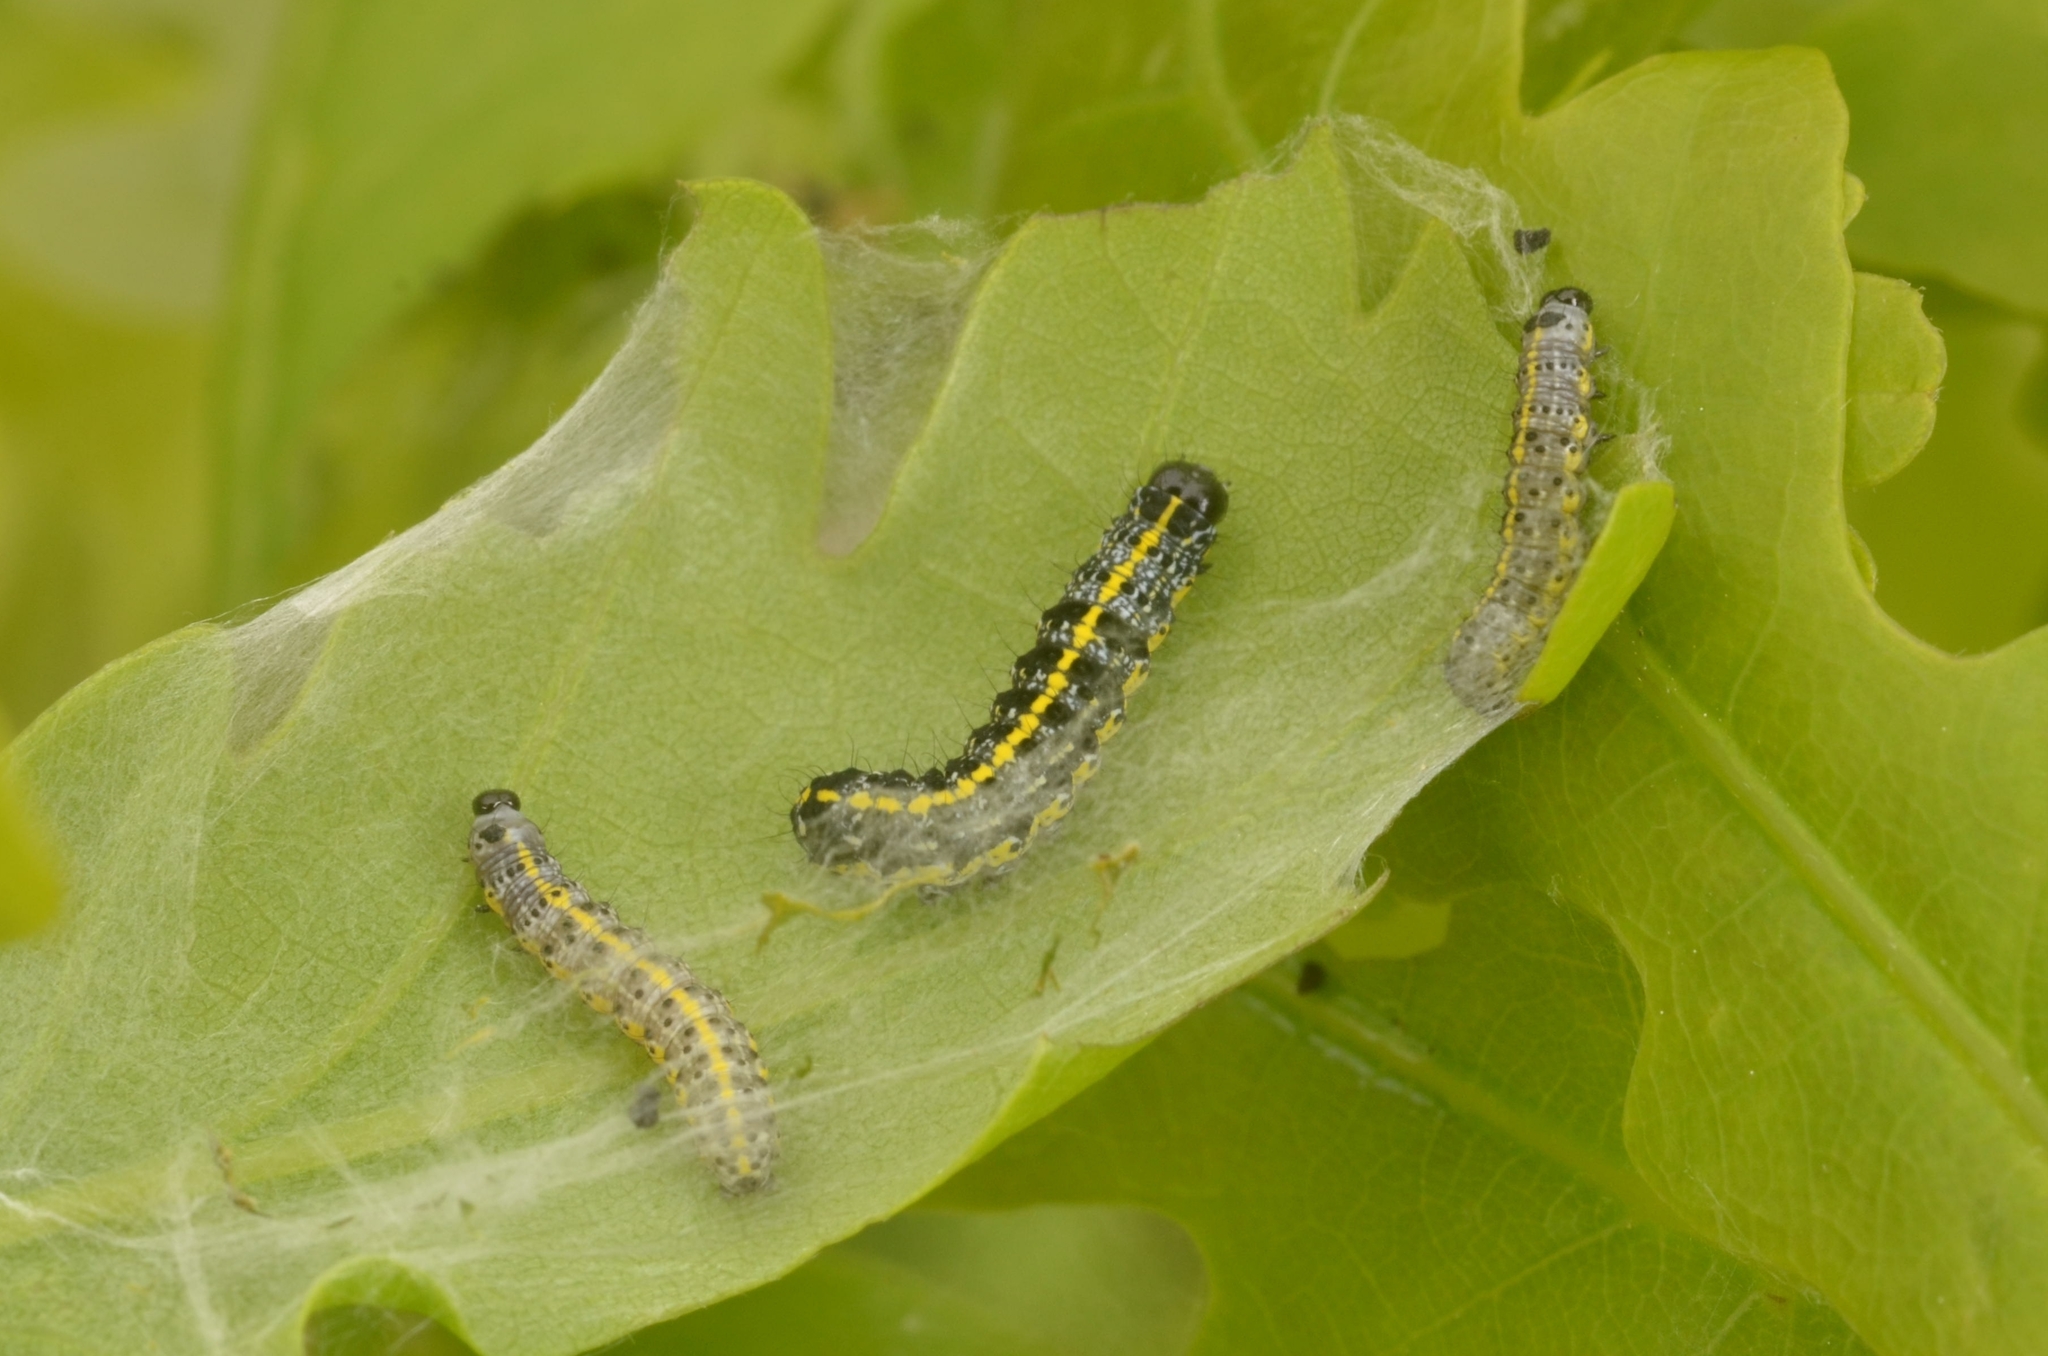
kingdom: Animalia
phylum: Arthropoda
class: Insecta
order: Lepidoptera
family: Noctuidae
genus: Orthosia
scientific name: Orthosia miniosa
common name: Blossom underwing
